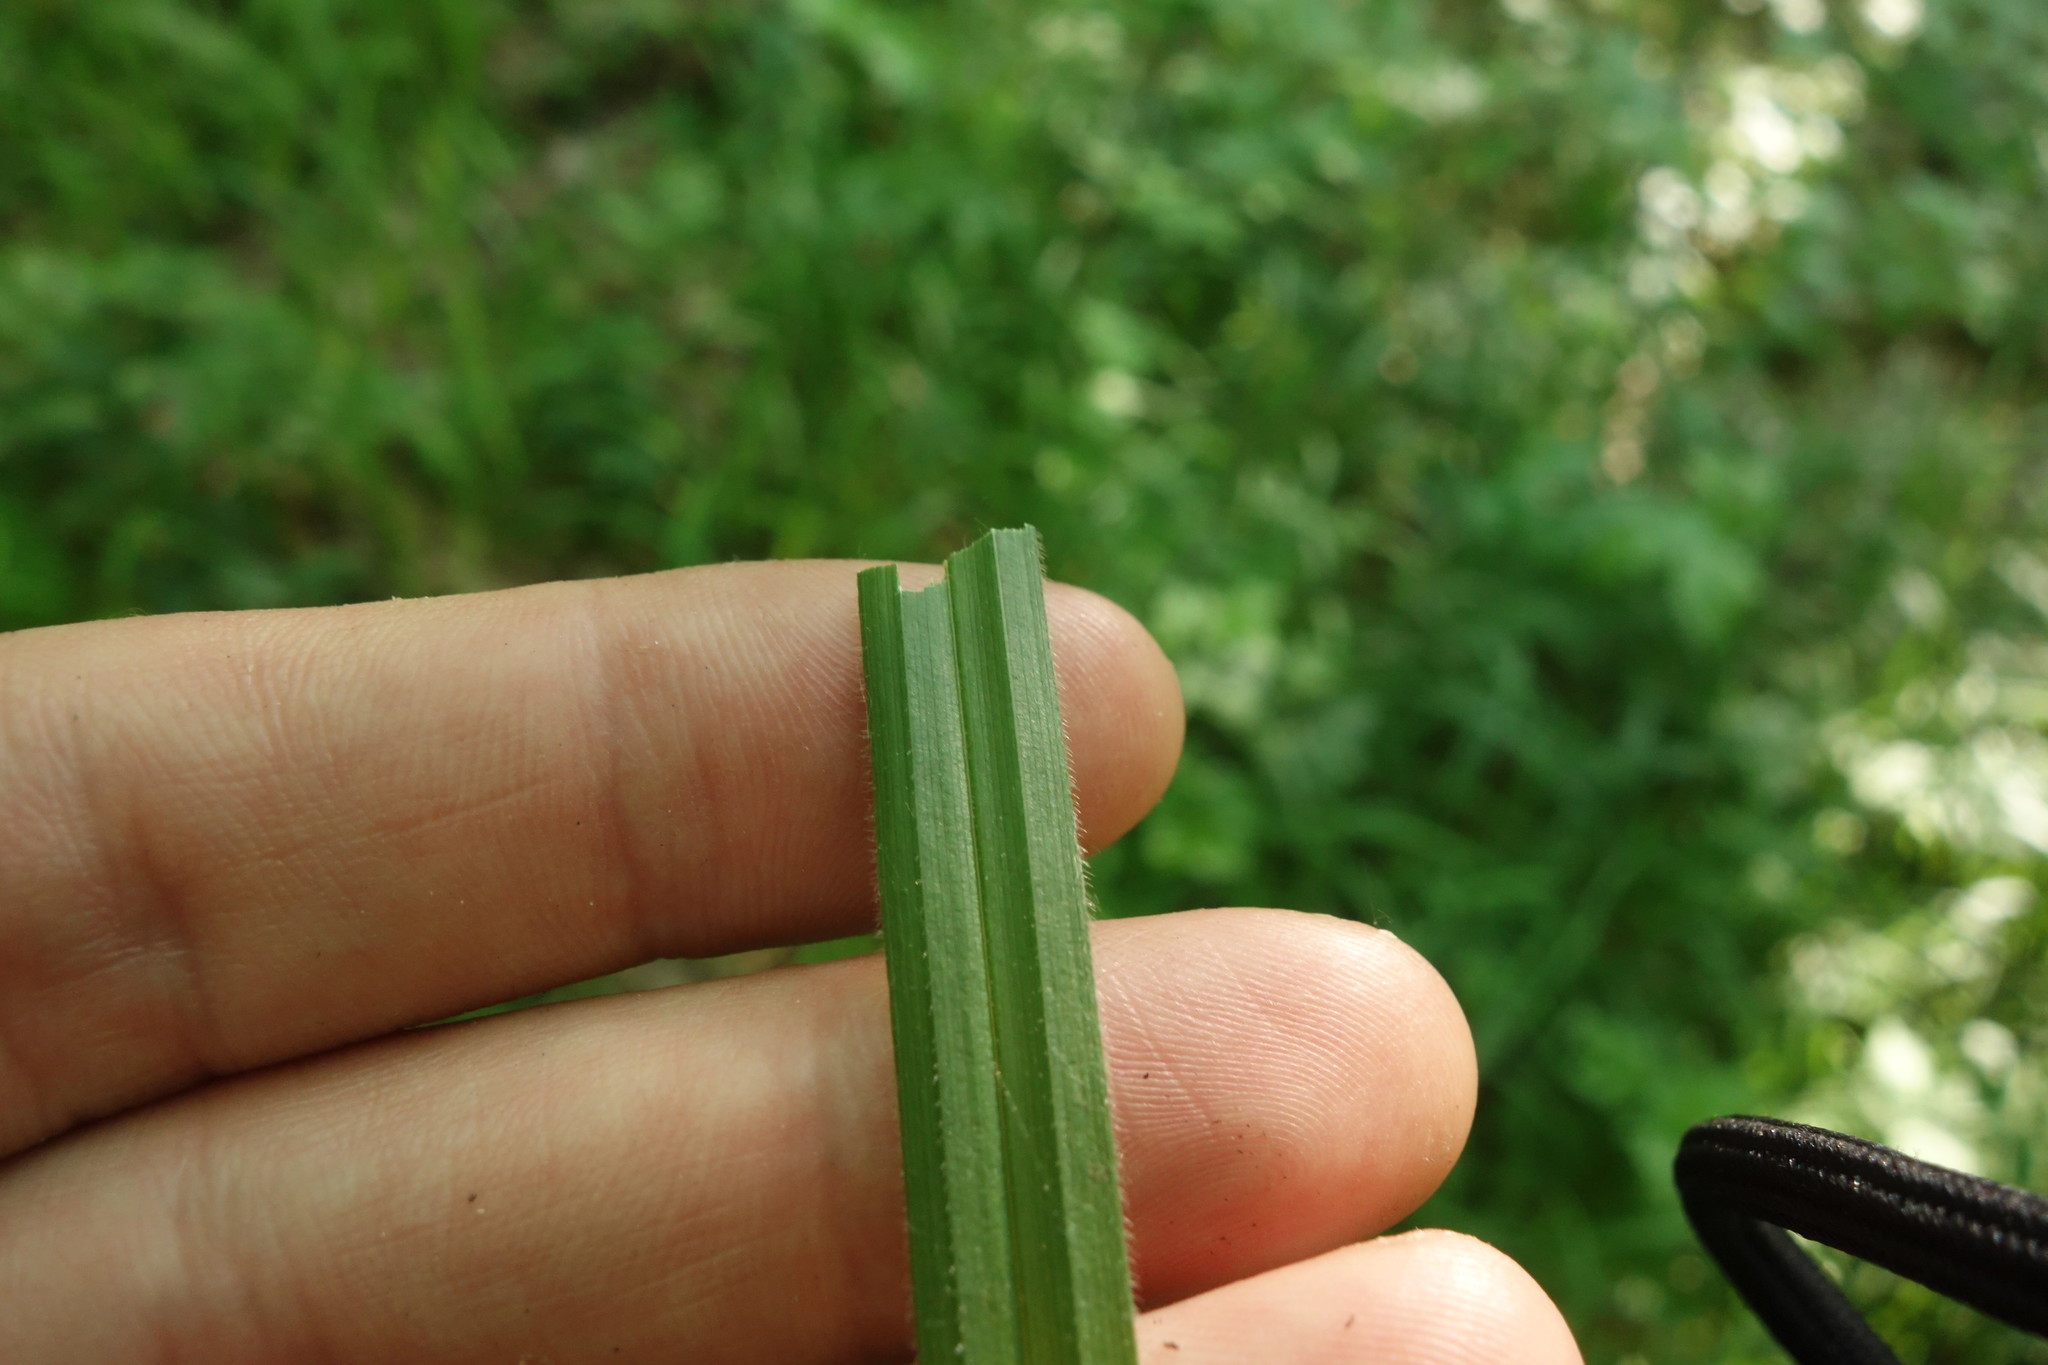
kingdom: Plantae
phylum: Tracheophyta
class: Liliopsida
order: Poales
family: Cyperaceae
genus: Carex
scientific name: Carex pilosa
